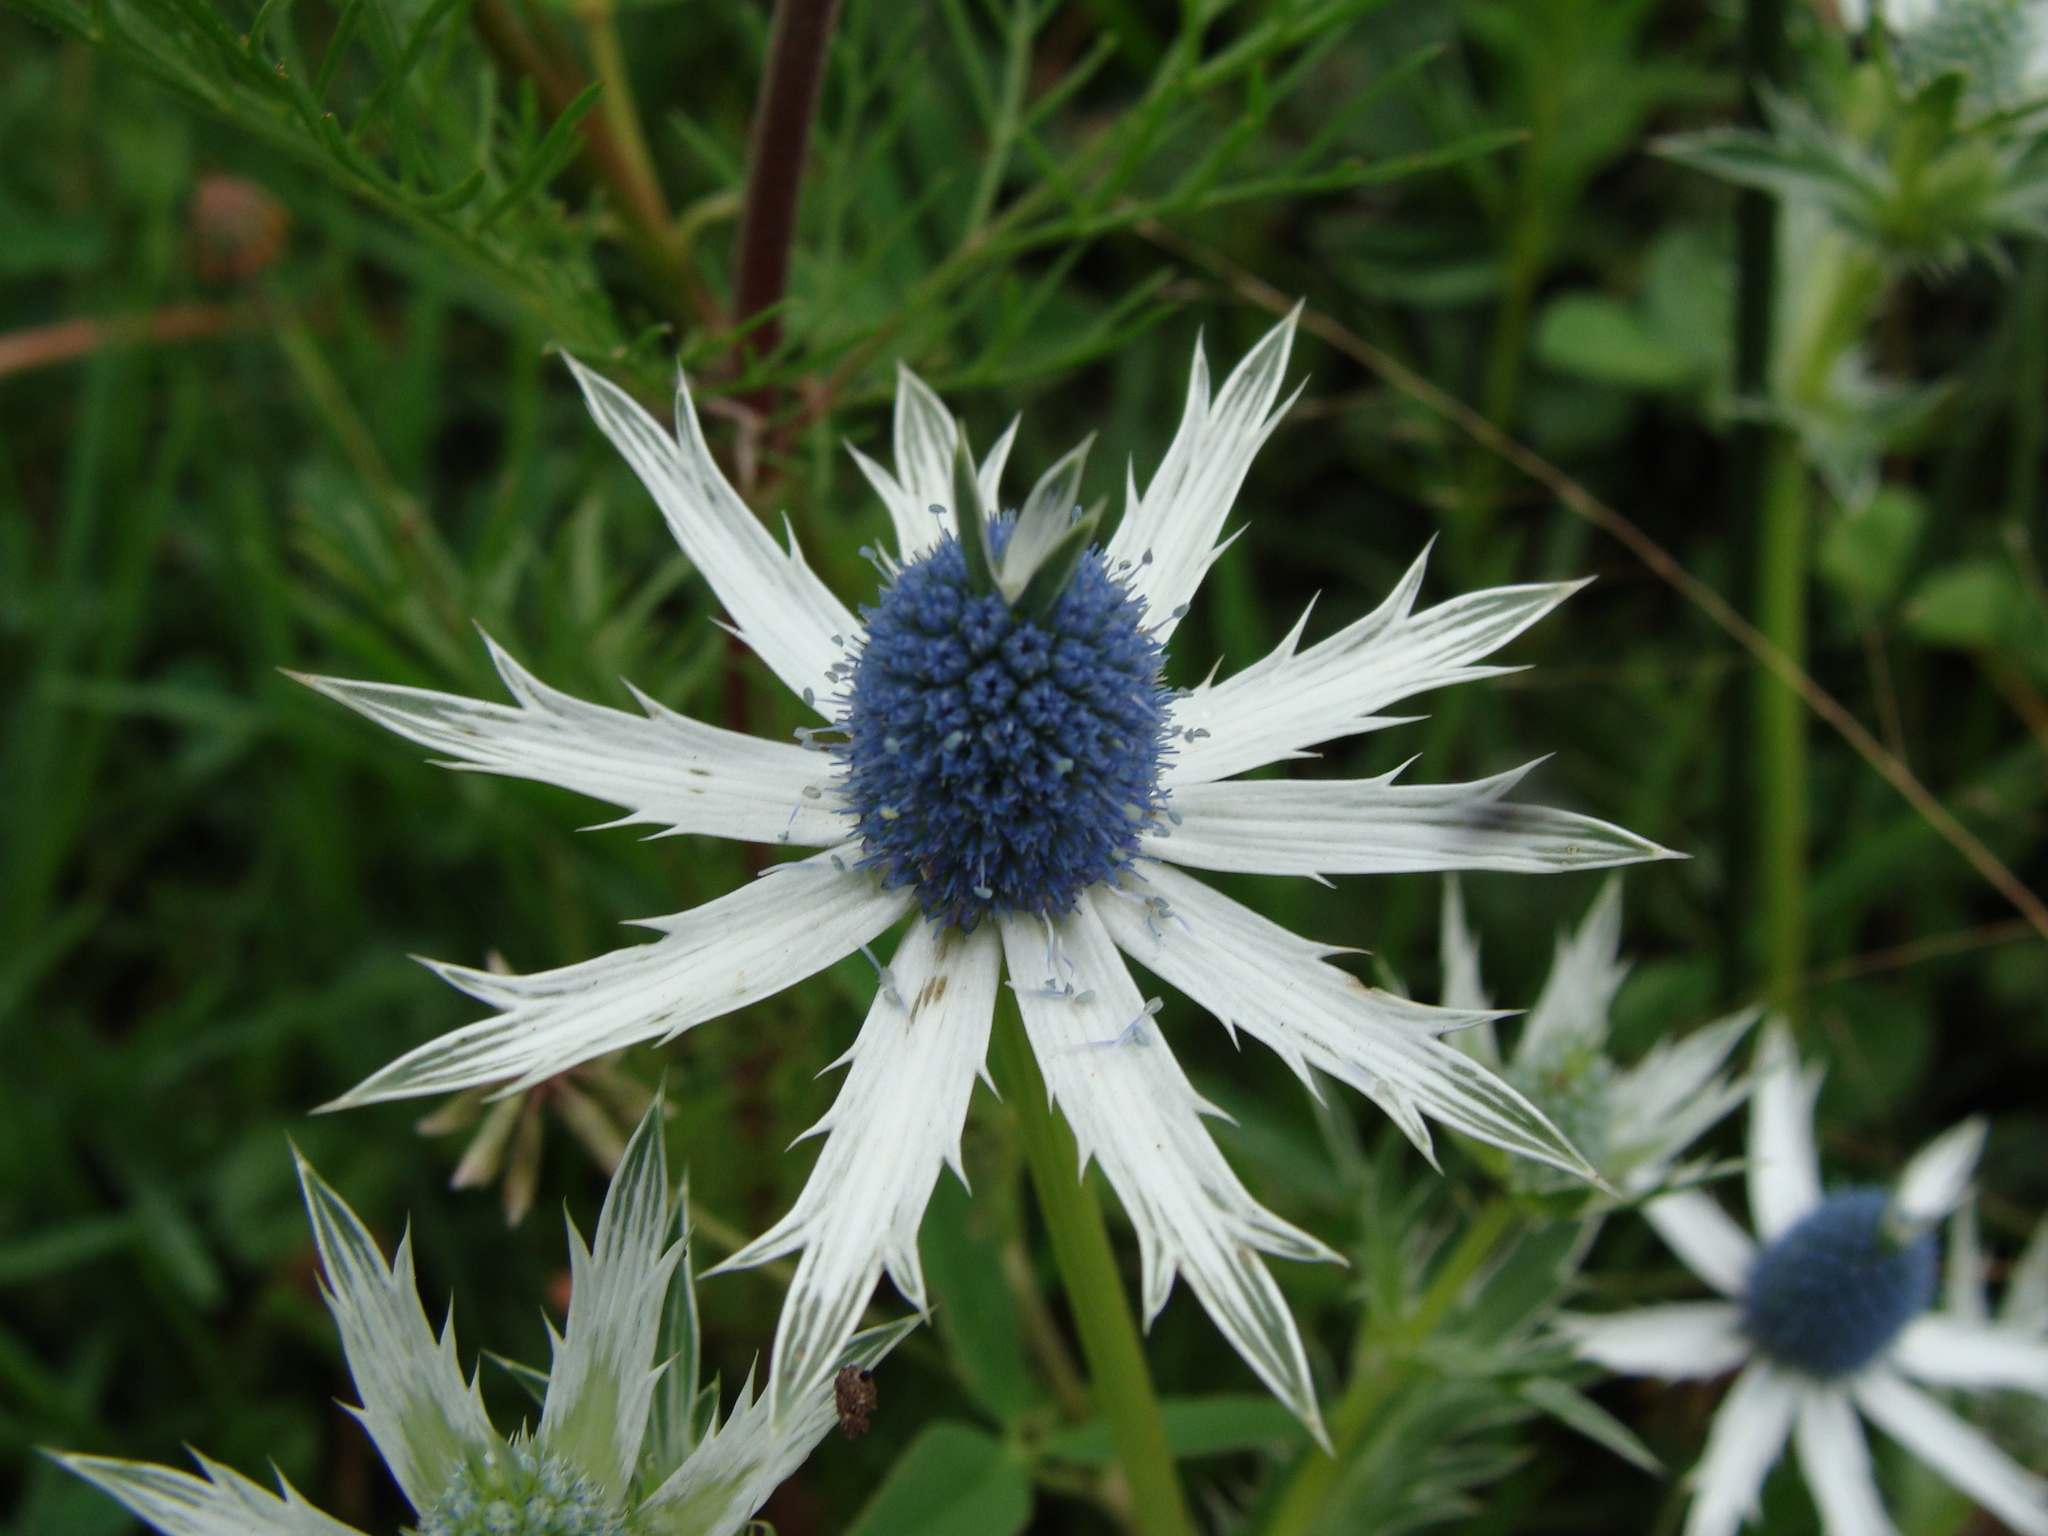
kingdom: Plantae
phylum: Tracheophyta
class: Magnoliopsida
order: Apiales
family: Apiaceae
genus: Eryngium
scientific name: Eryngium carlinae
